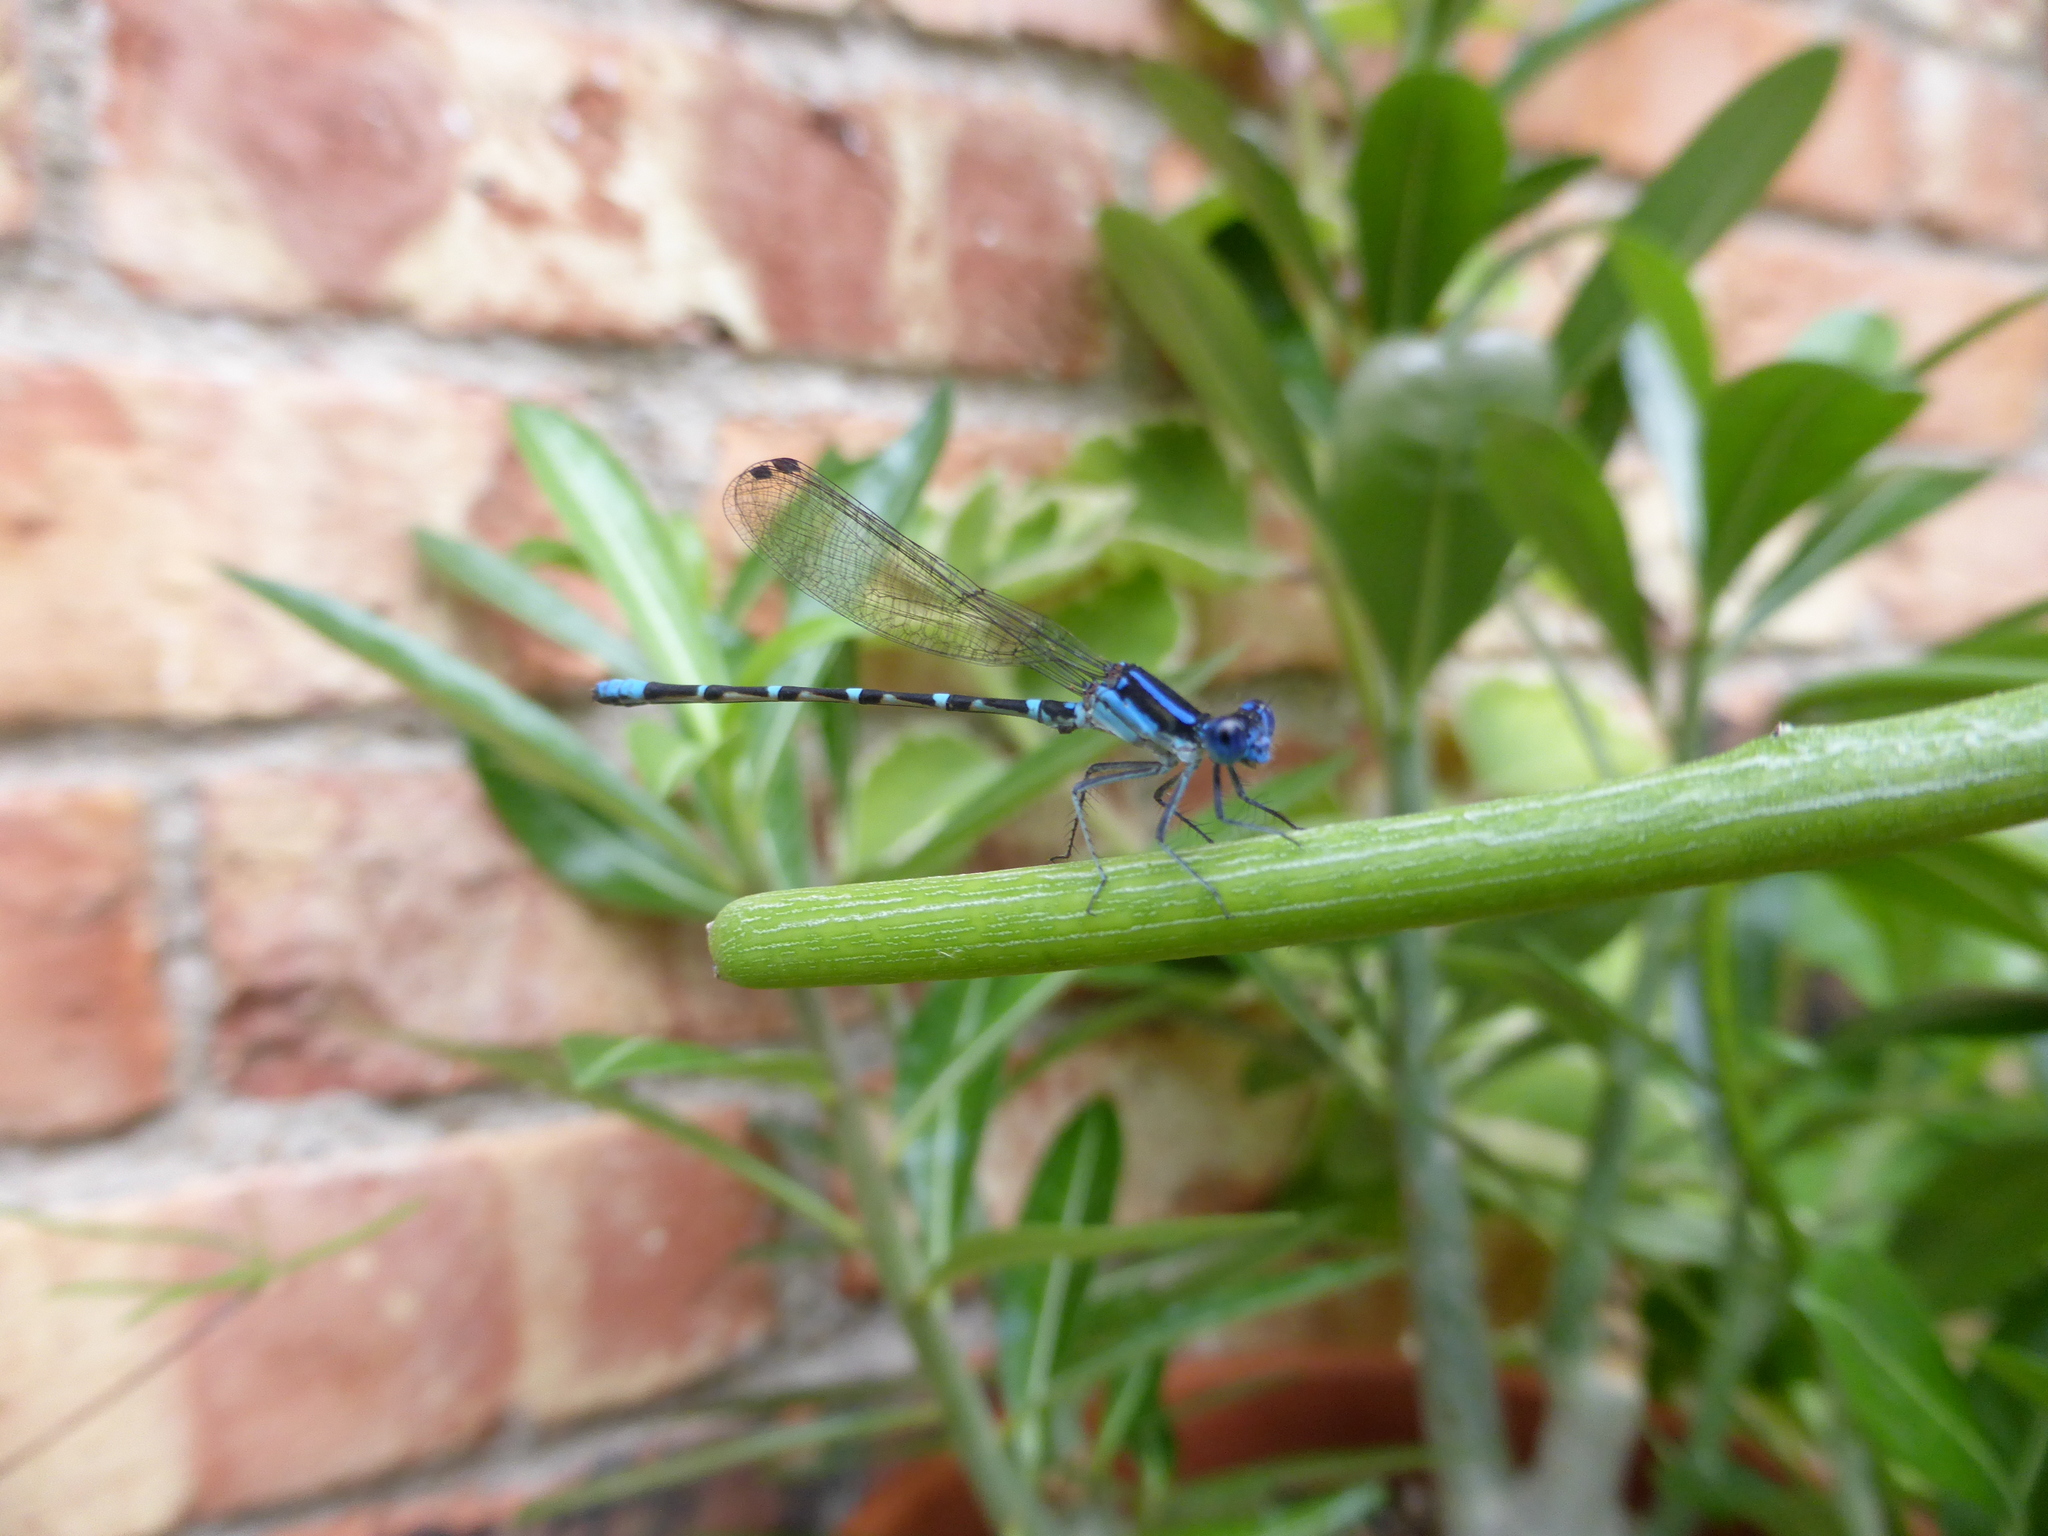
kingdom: Animalia
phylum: Arthropoda
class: Insecta
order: Odonata
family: Coenagrionidae
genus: Argia
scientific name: Argia sedula
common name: Blue-ringed dancer
